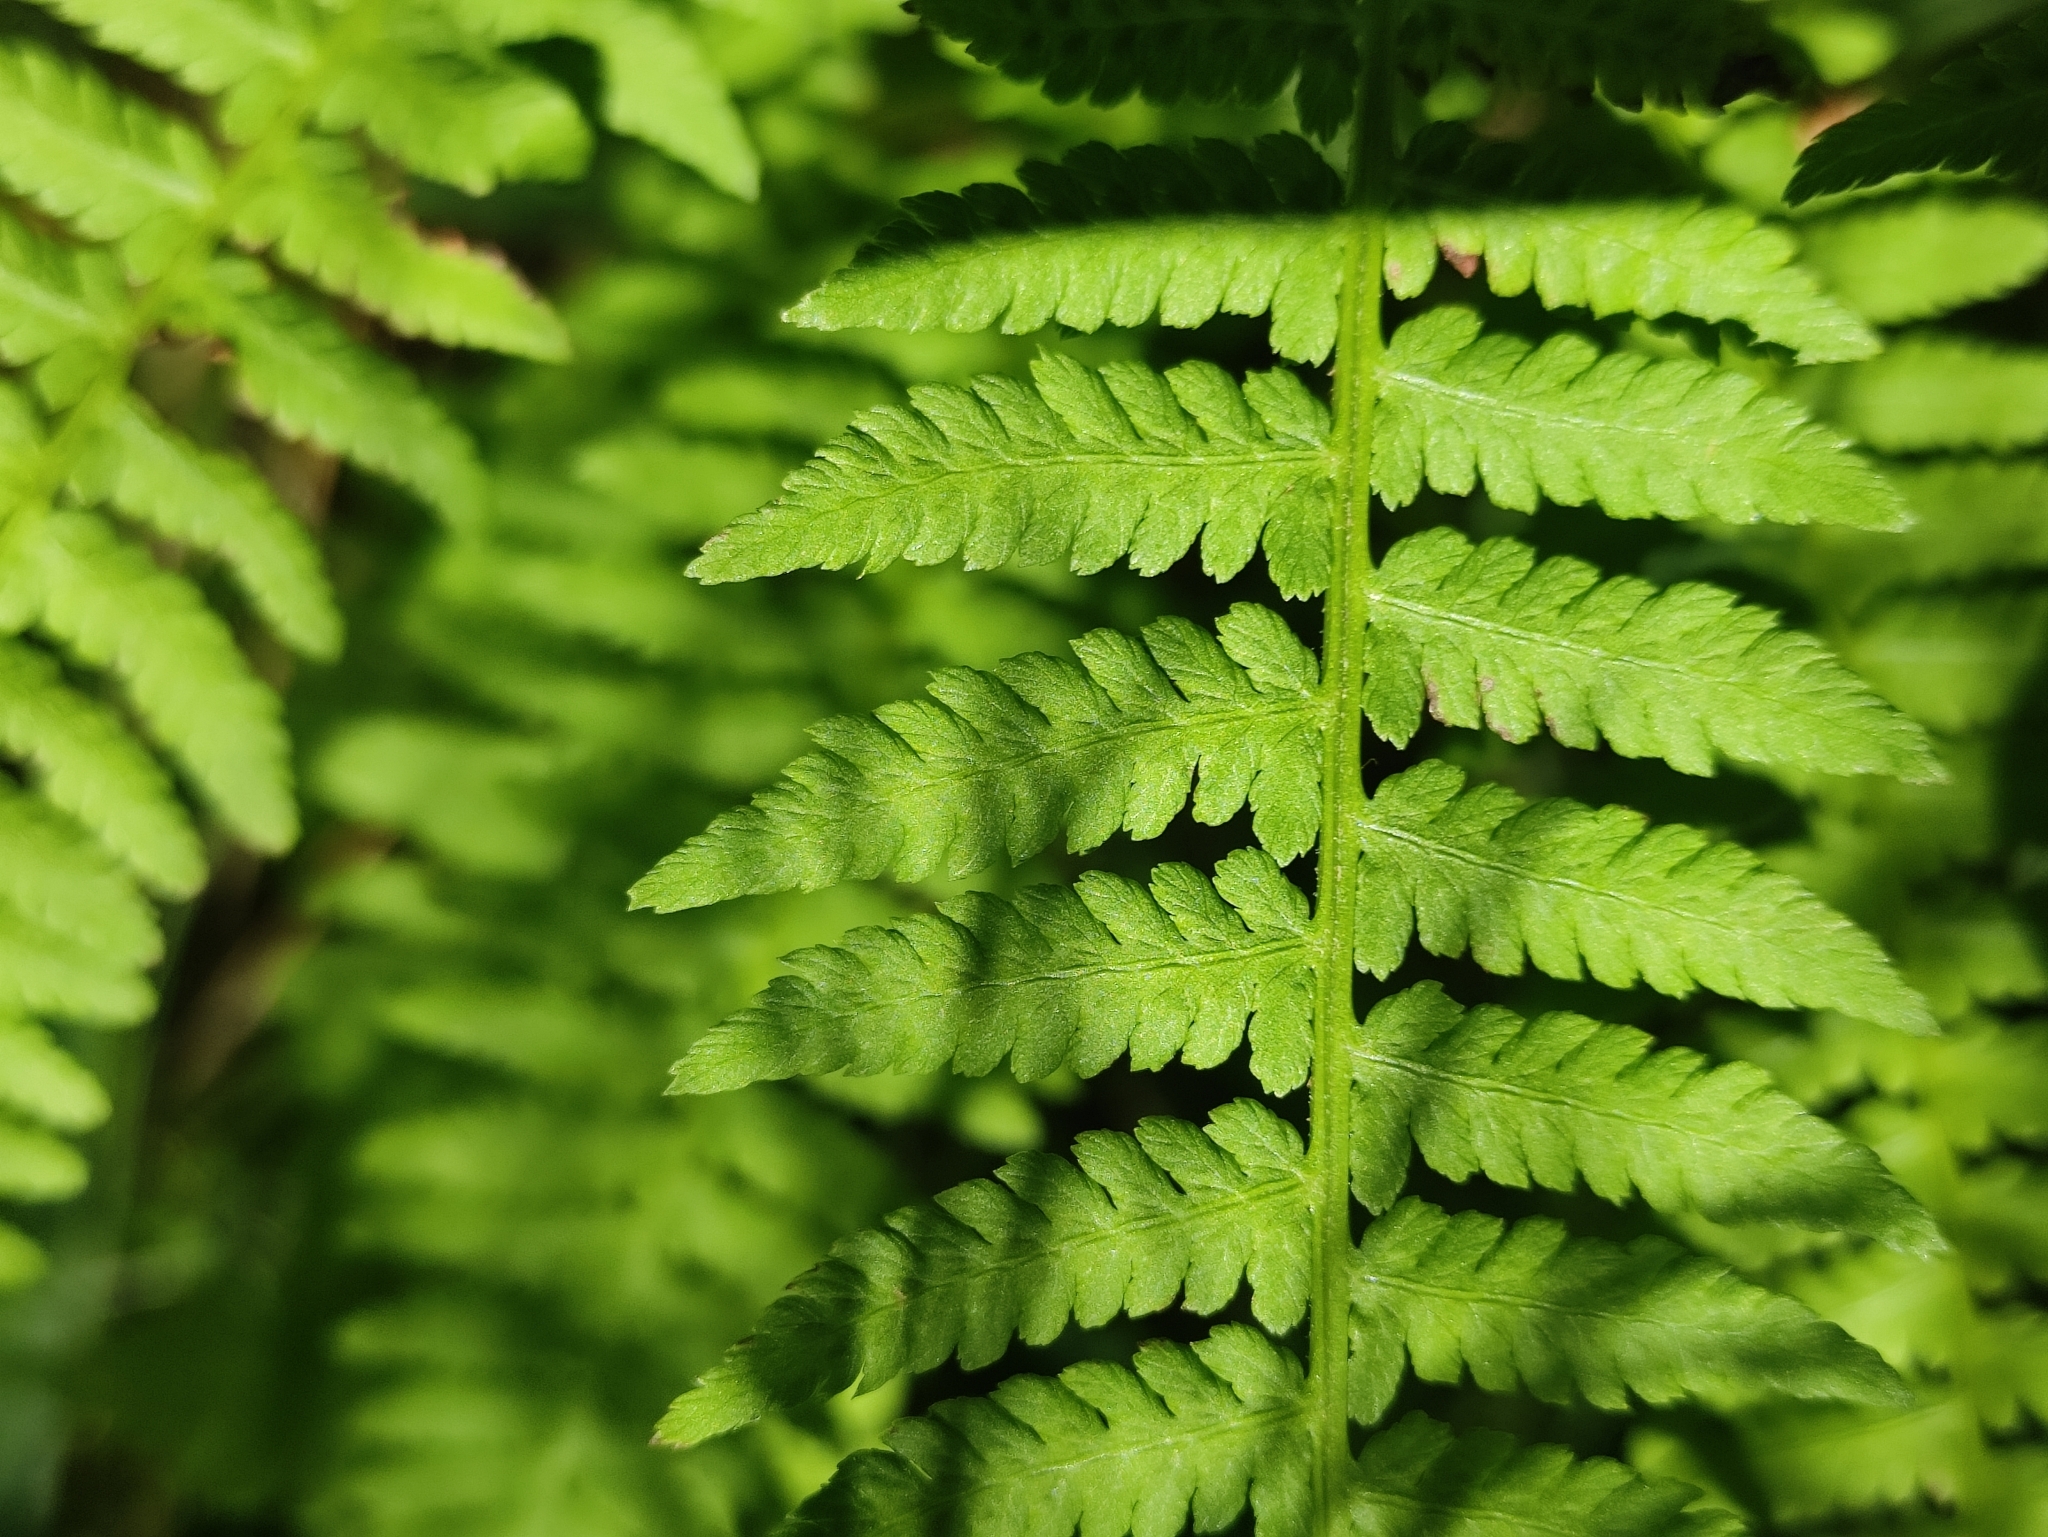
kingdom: Plantae
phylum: Tracheophyta
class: Polypodiopsida
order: Polypodiales
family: Athyriaceae
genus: Athyrium
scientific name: Athyrium filix-femina
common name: Lady fern
